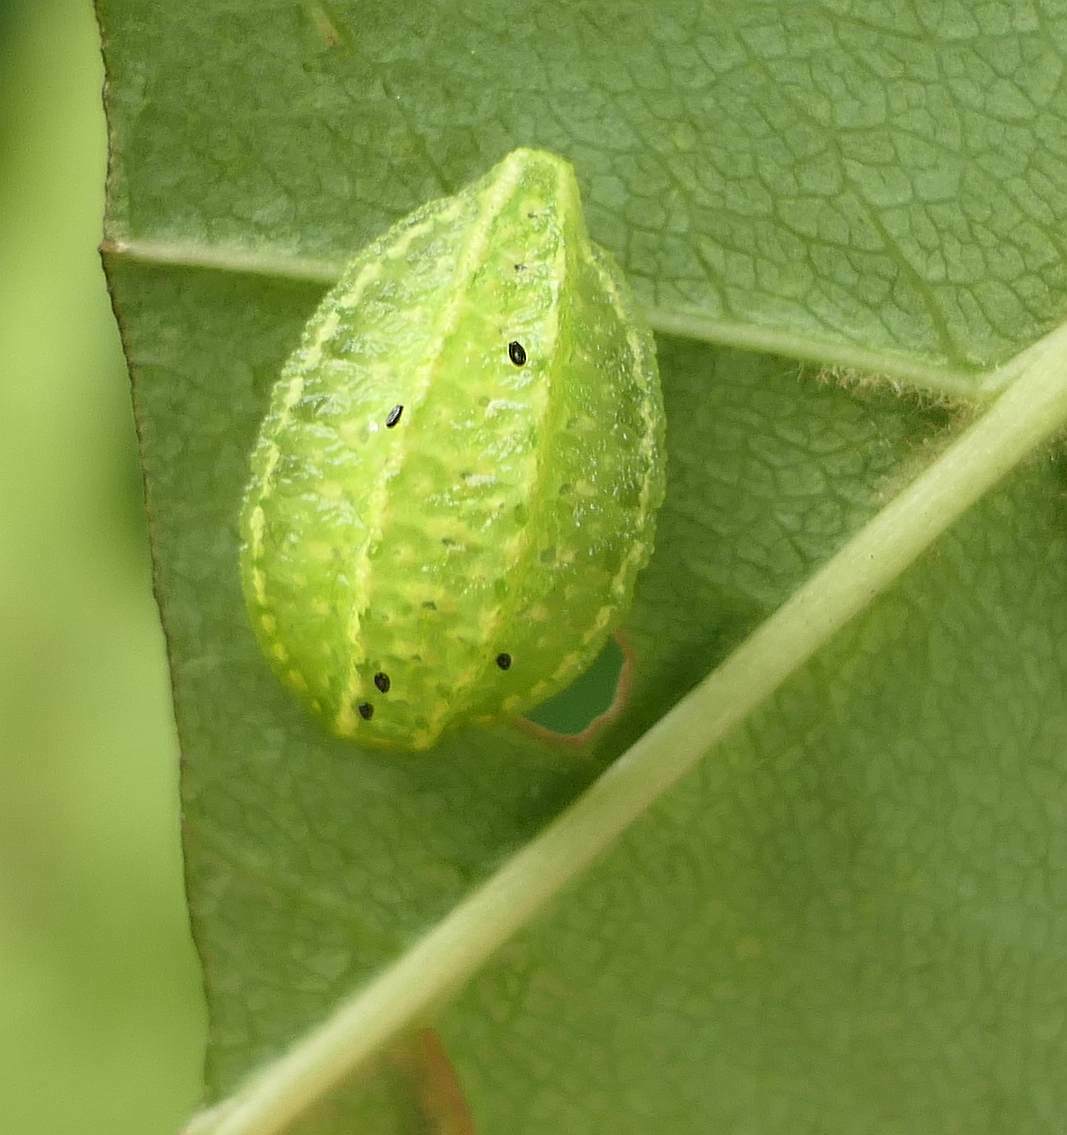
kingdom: Animalia
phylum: Arthropoda
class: Insecta
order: Lepidoptera
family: Limacodidae
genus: Lithacodes
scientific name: Lithacodes fasciola
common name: Yellow-shouldered slug moth
